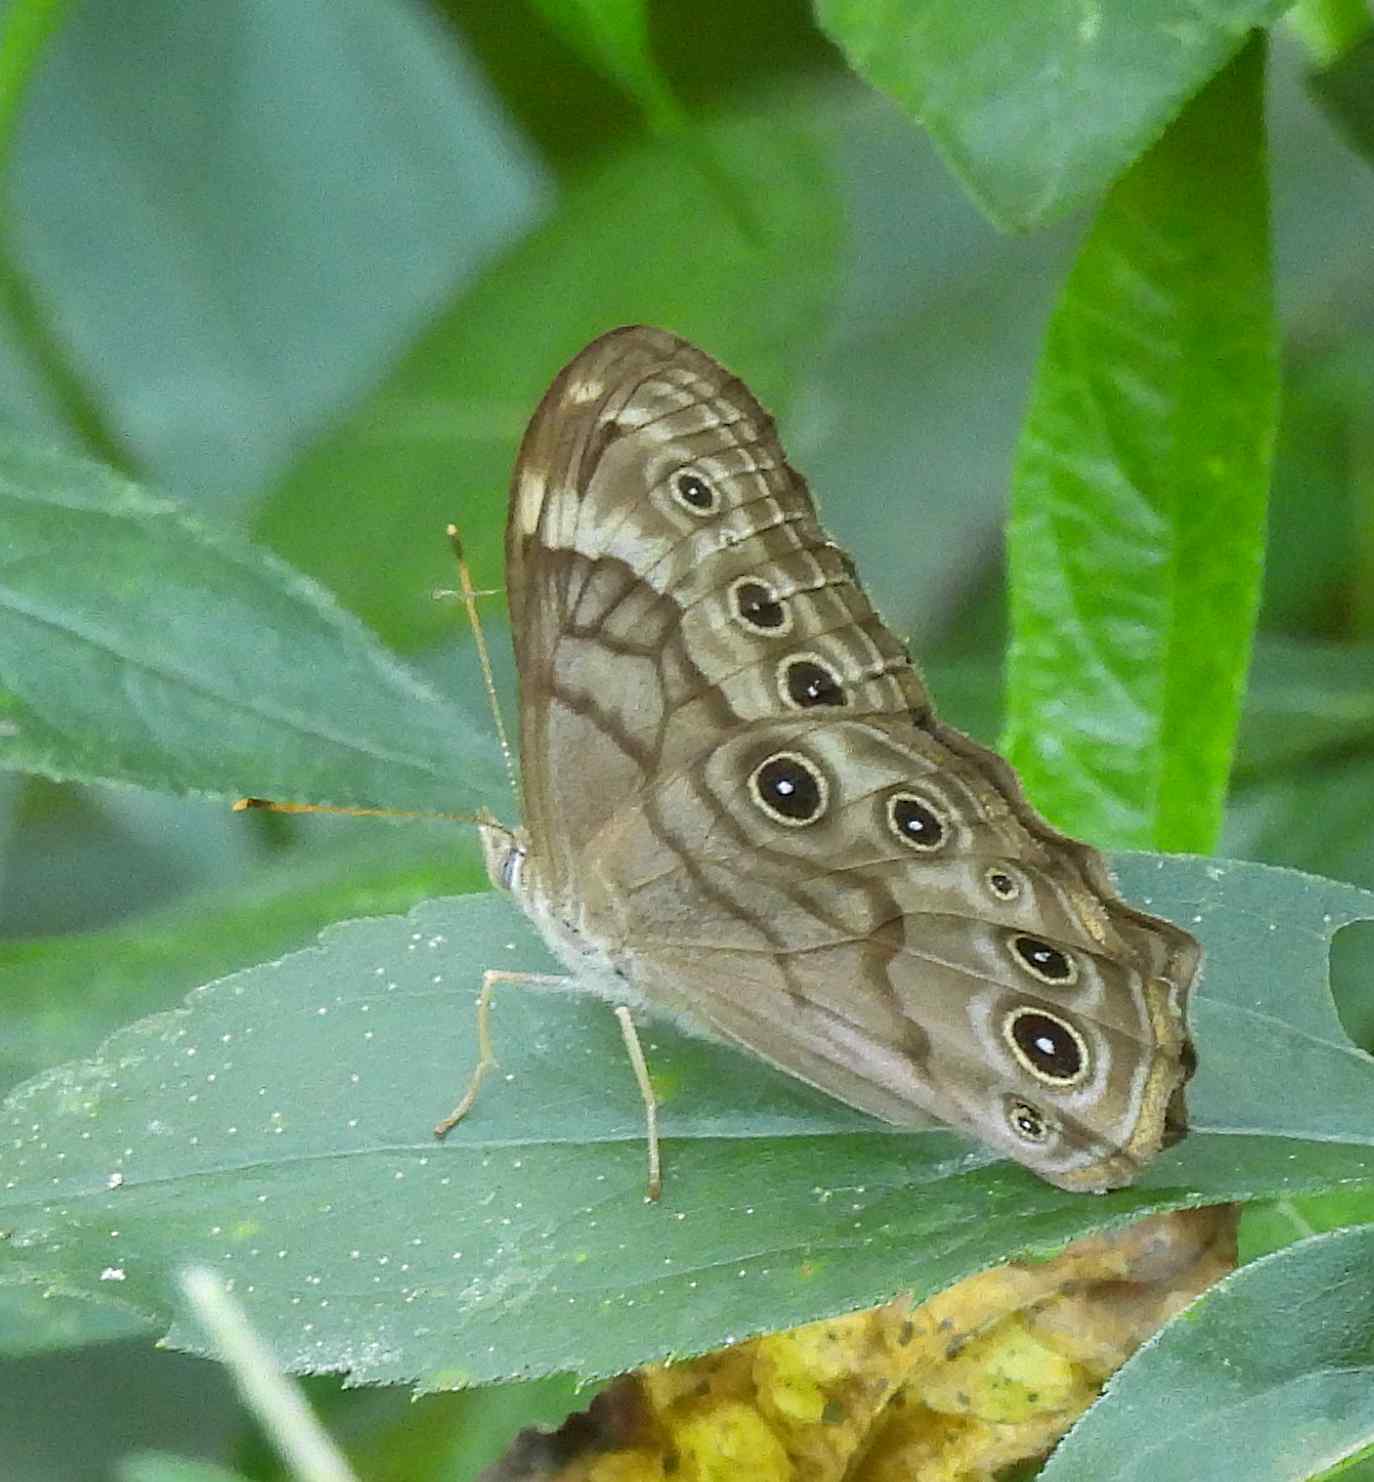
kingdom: Animalia
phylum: Arthropoda
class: Insecta
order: Lepidoptera
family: Nymphalidae
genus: Lethe
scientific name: Lethe anthedon
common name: Northern pearly-eye
